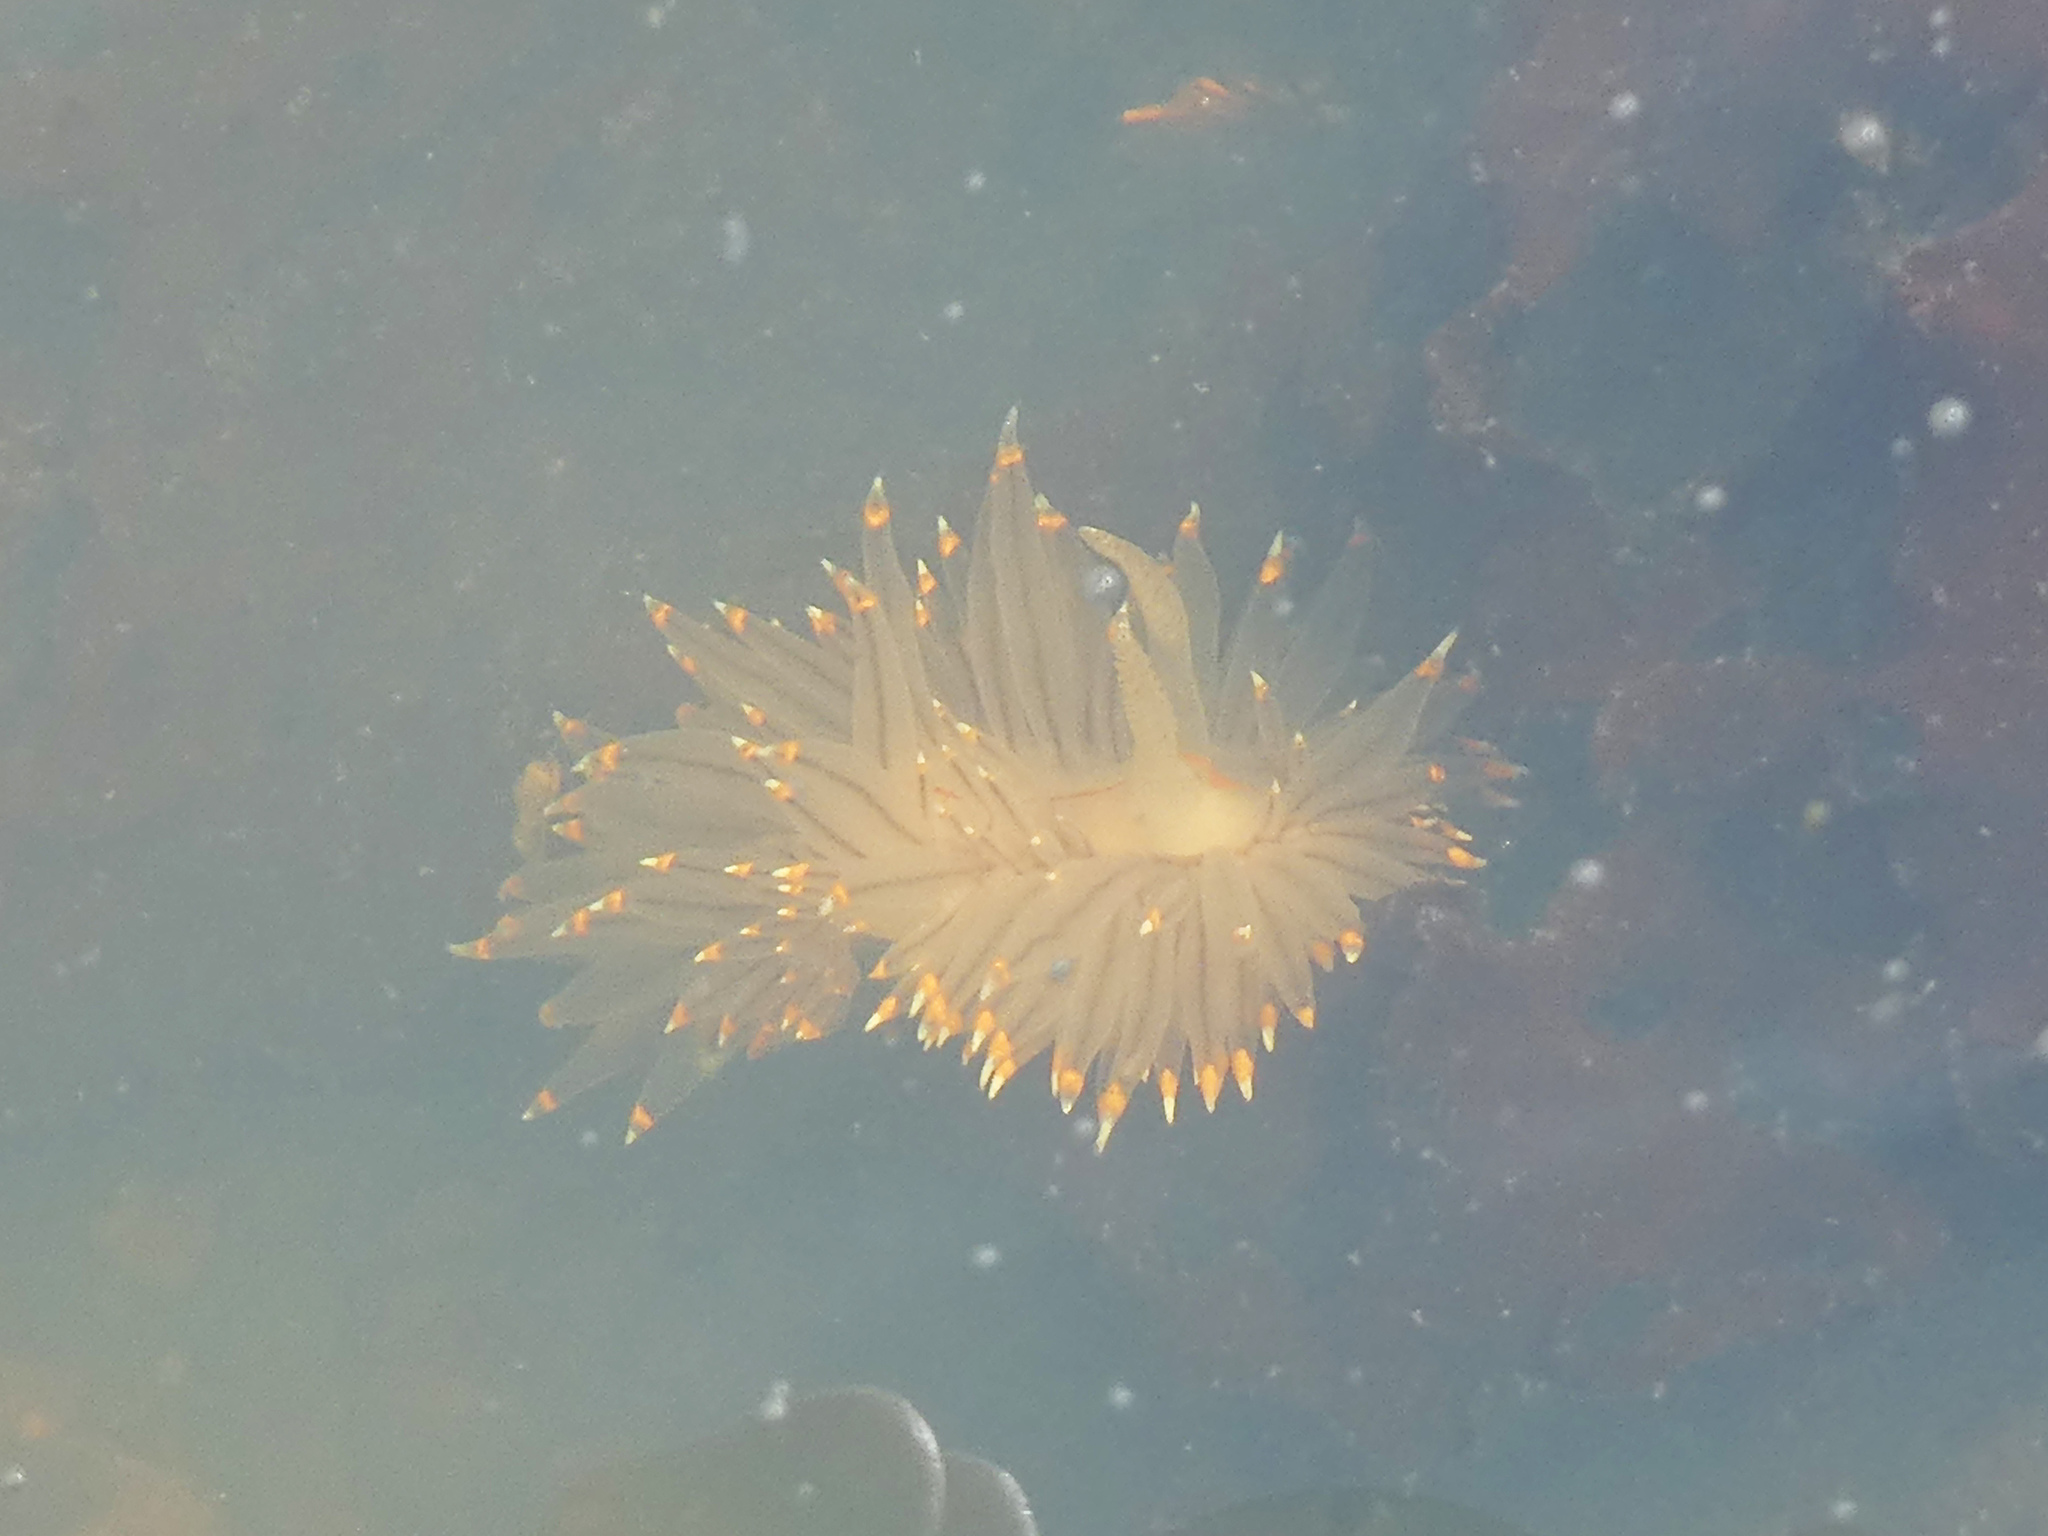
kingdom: Animalia
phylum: Mollusca
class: Gastropoda
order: Nudibranchia
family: Janolidae
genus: Antiopella
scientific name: Antiopella fusca
